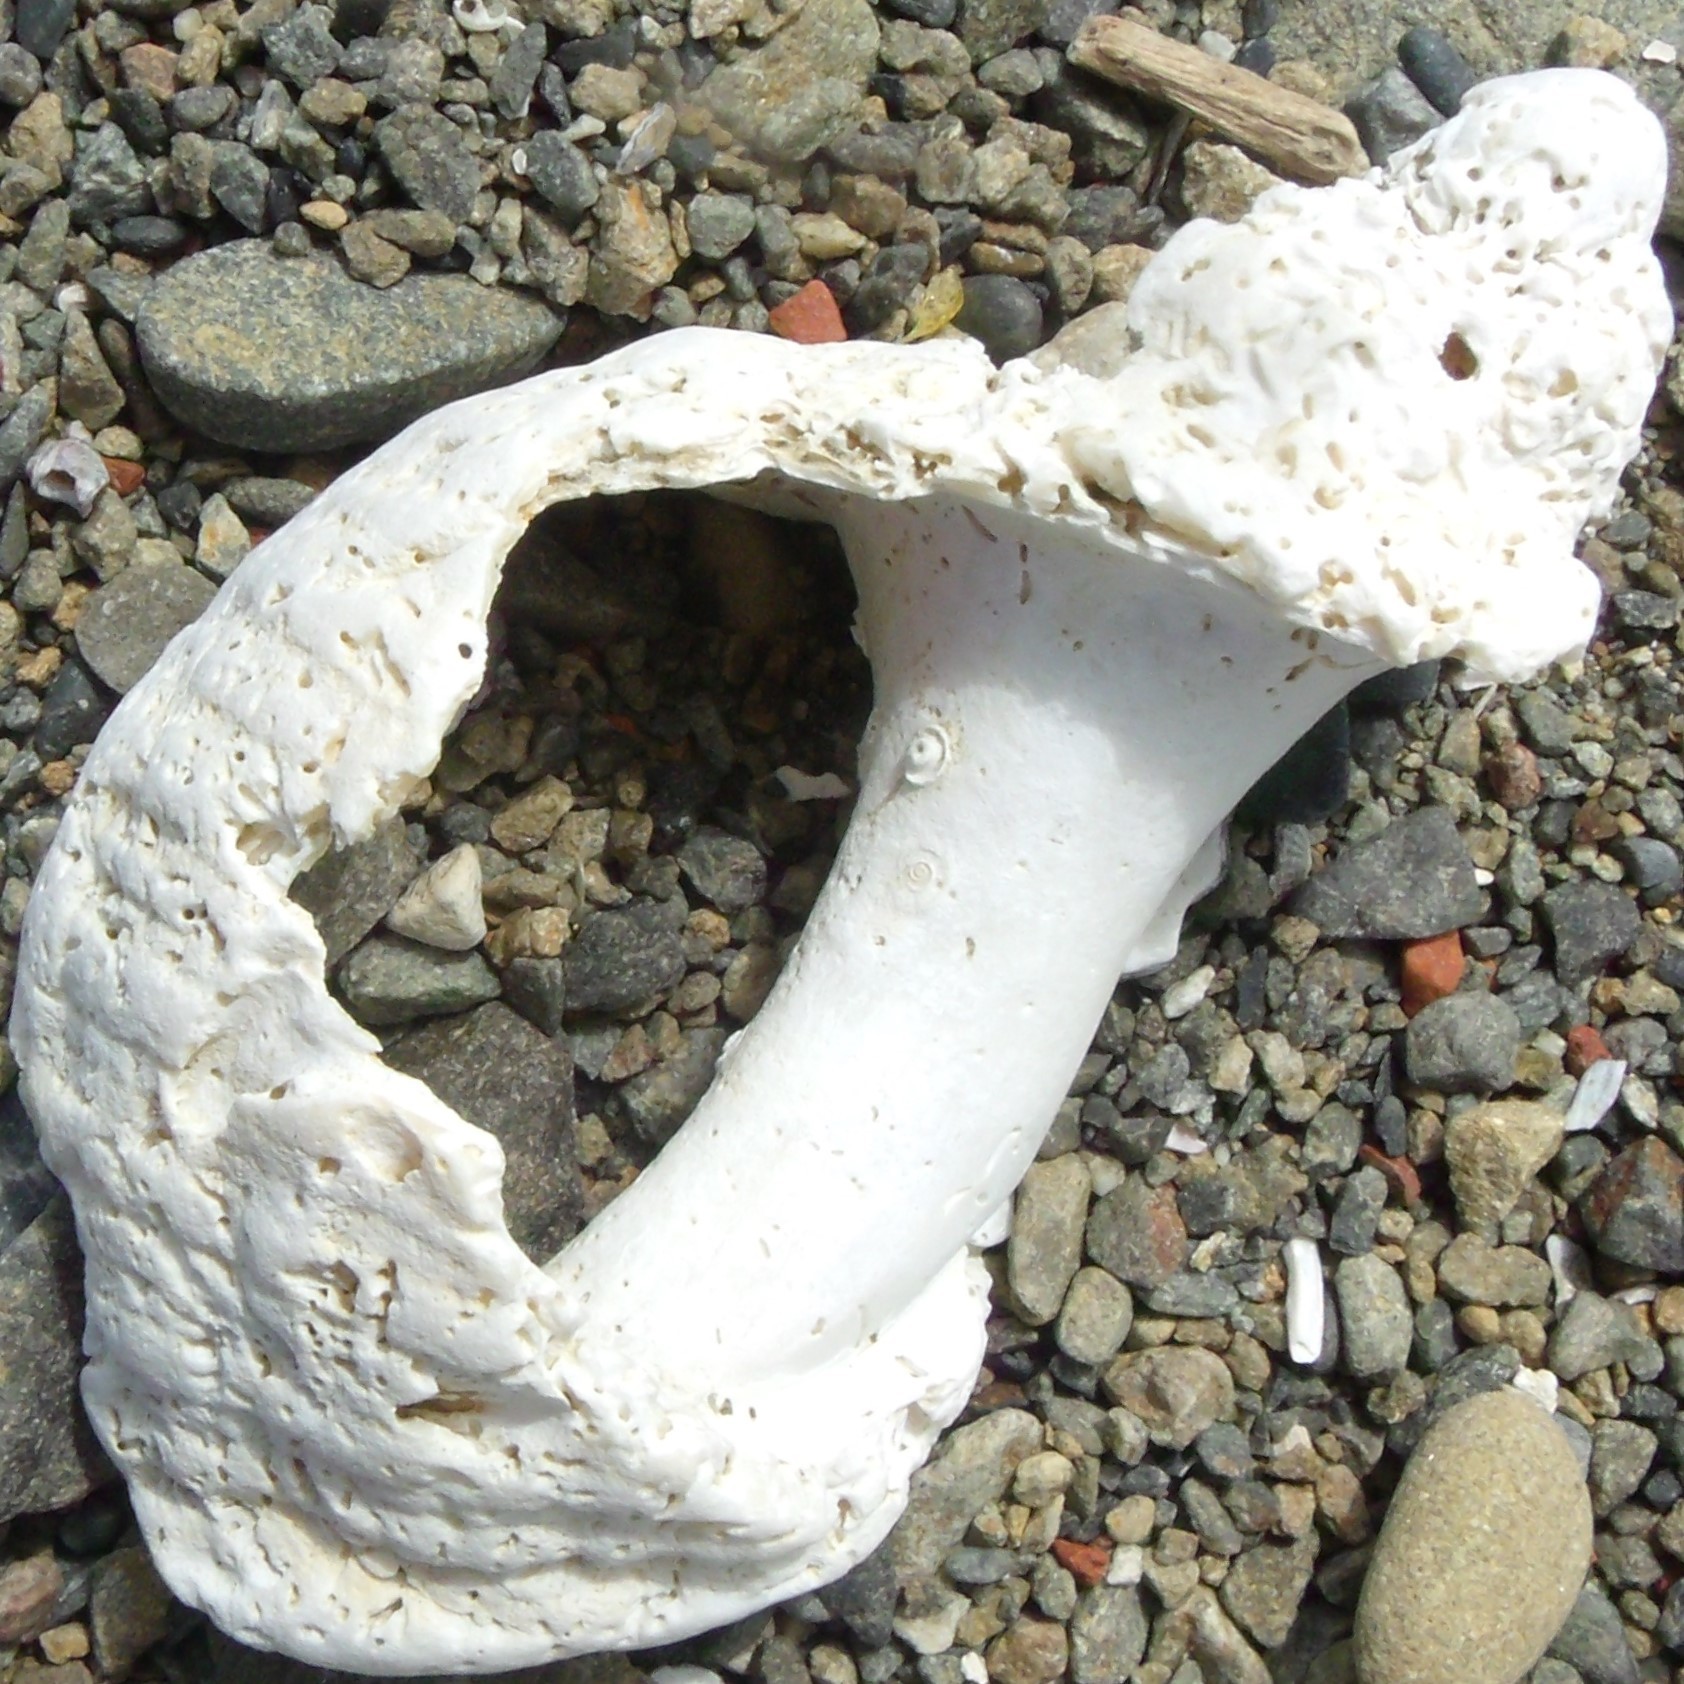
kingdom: Animalia
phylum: Mollusca
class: Gastropoda
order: Neogastropoda
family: Muricidae
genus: Dicathais
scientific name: Dicathais orbita
